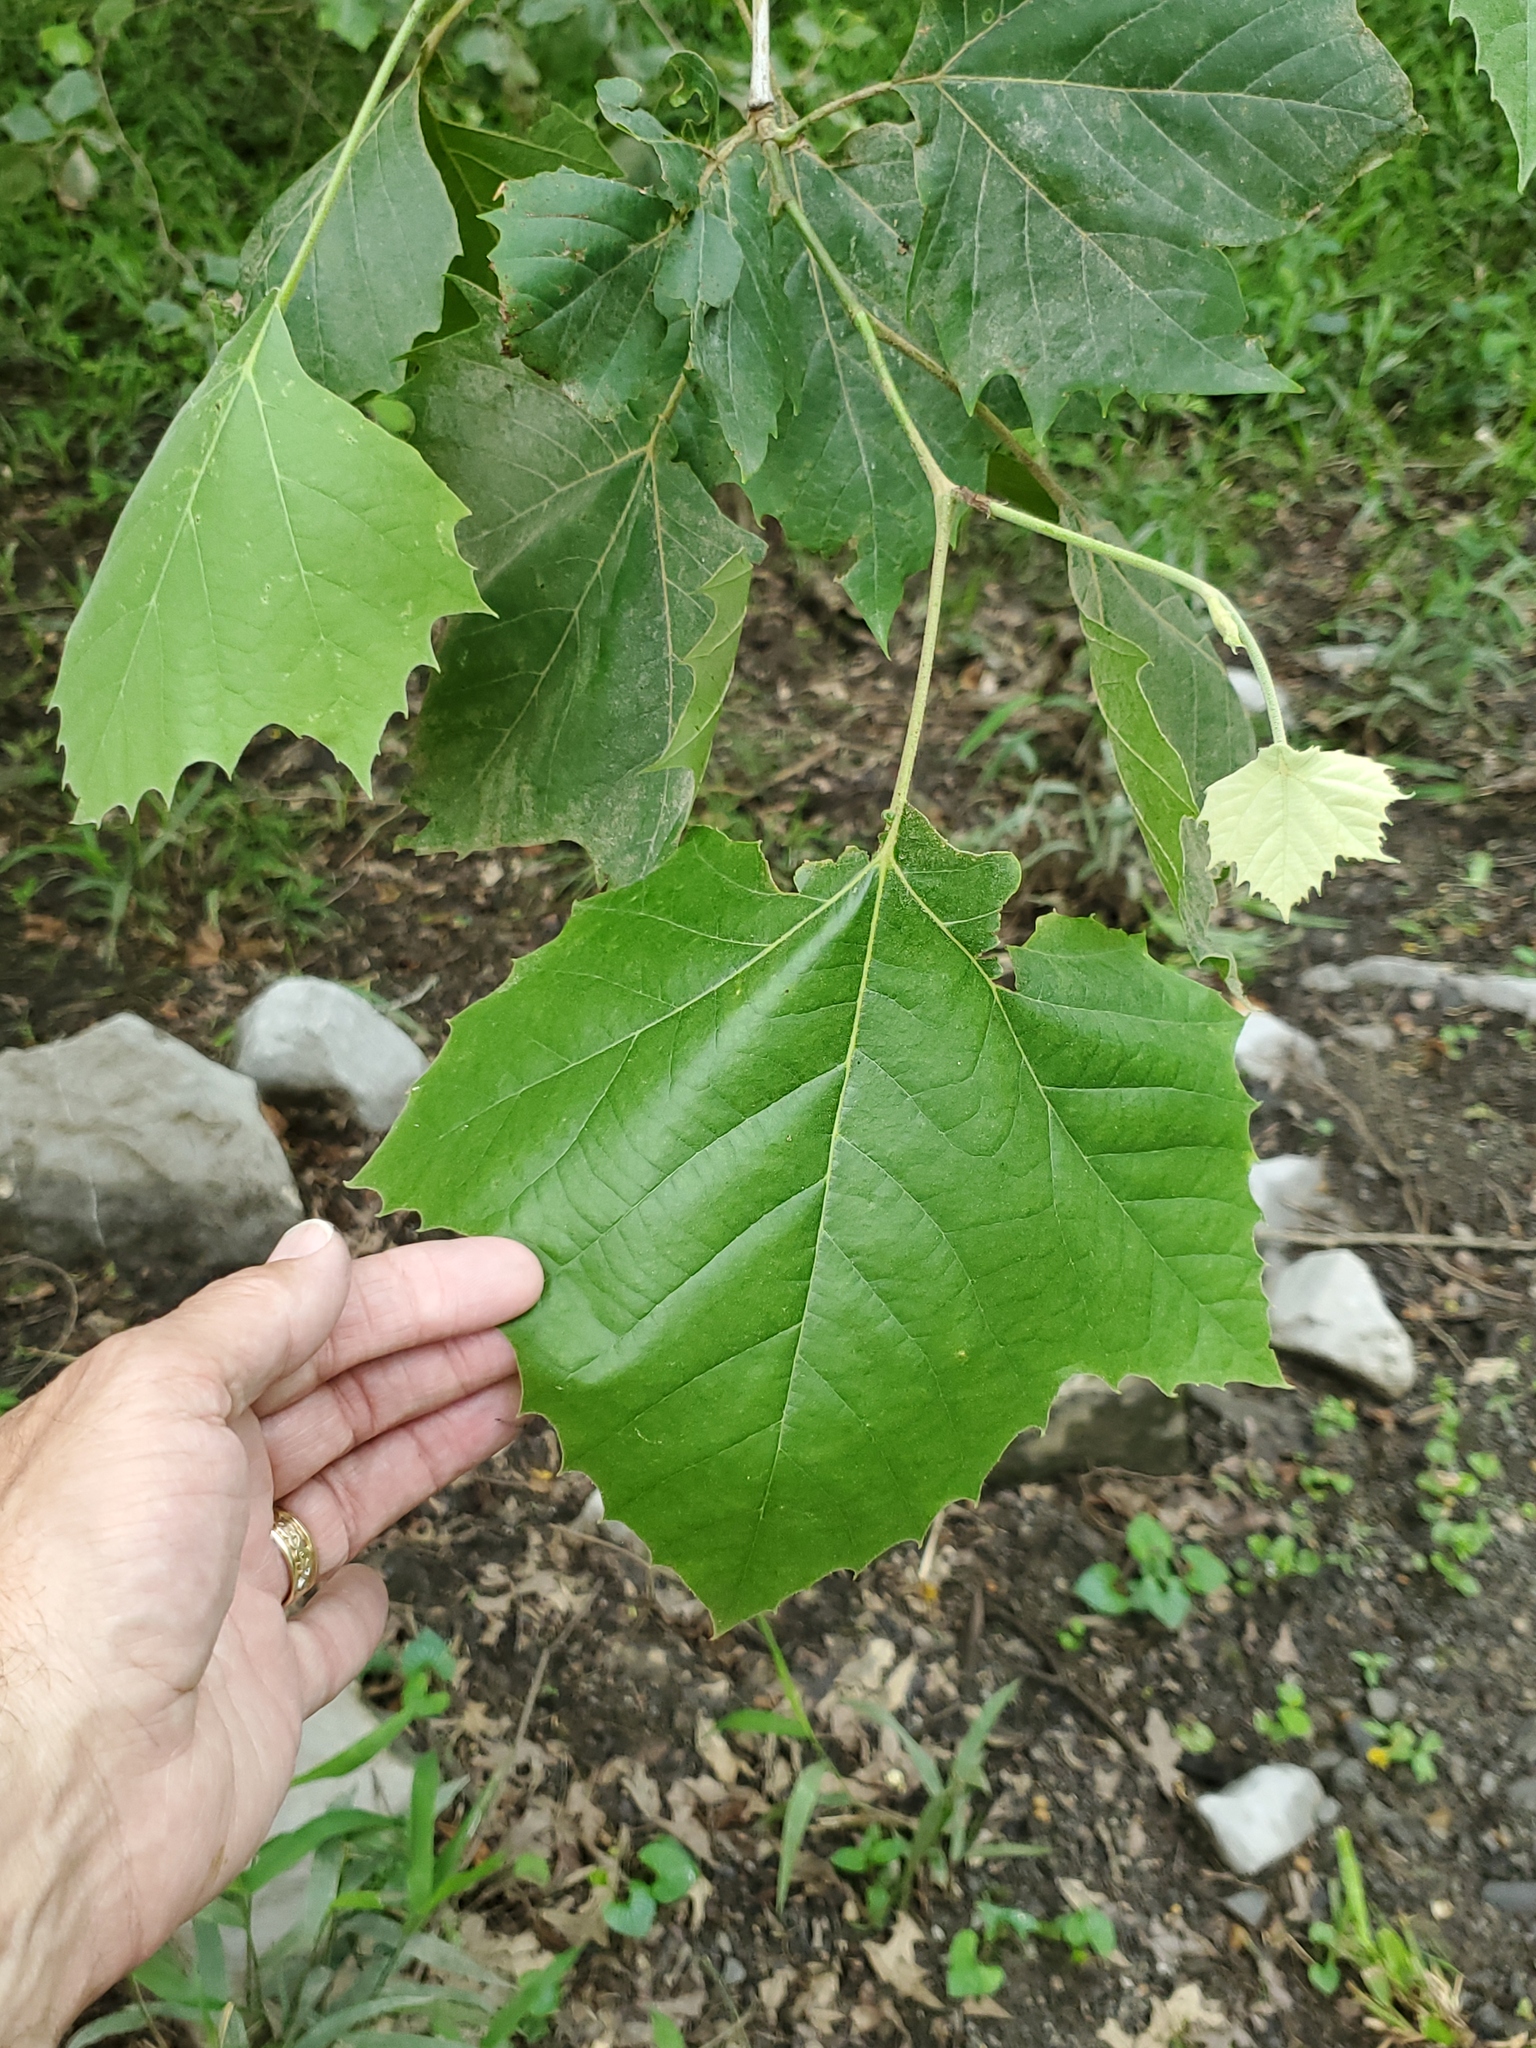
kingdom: Plantae
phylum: Tracheophyta
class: Magnoliopsida
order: Proteales
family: Platanaceae
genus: Platanus
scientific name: Platanus occidentalis
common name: American sycamore
